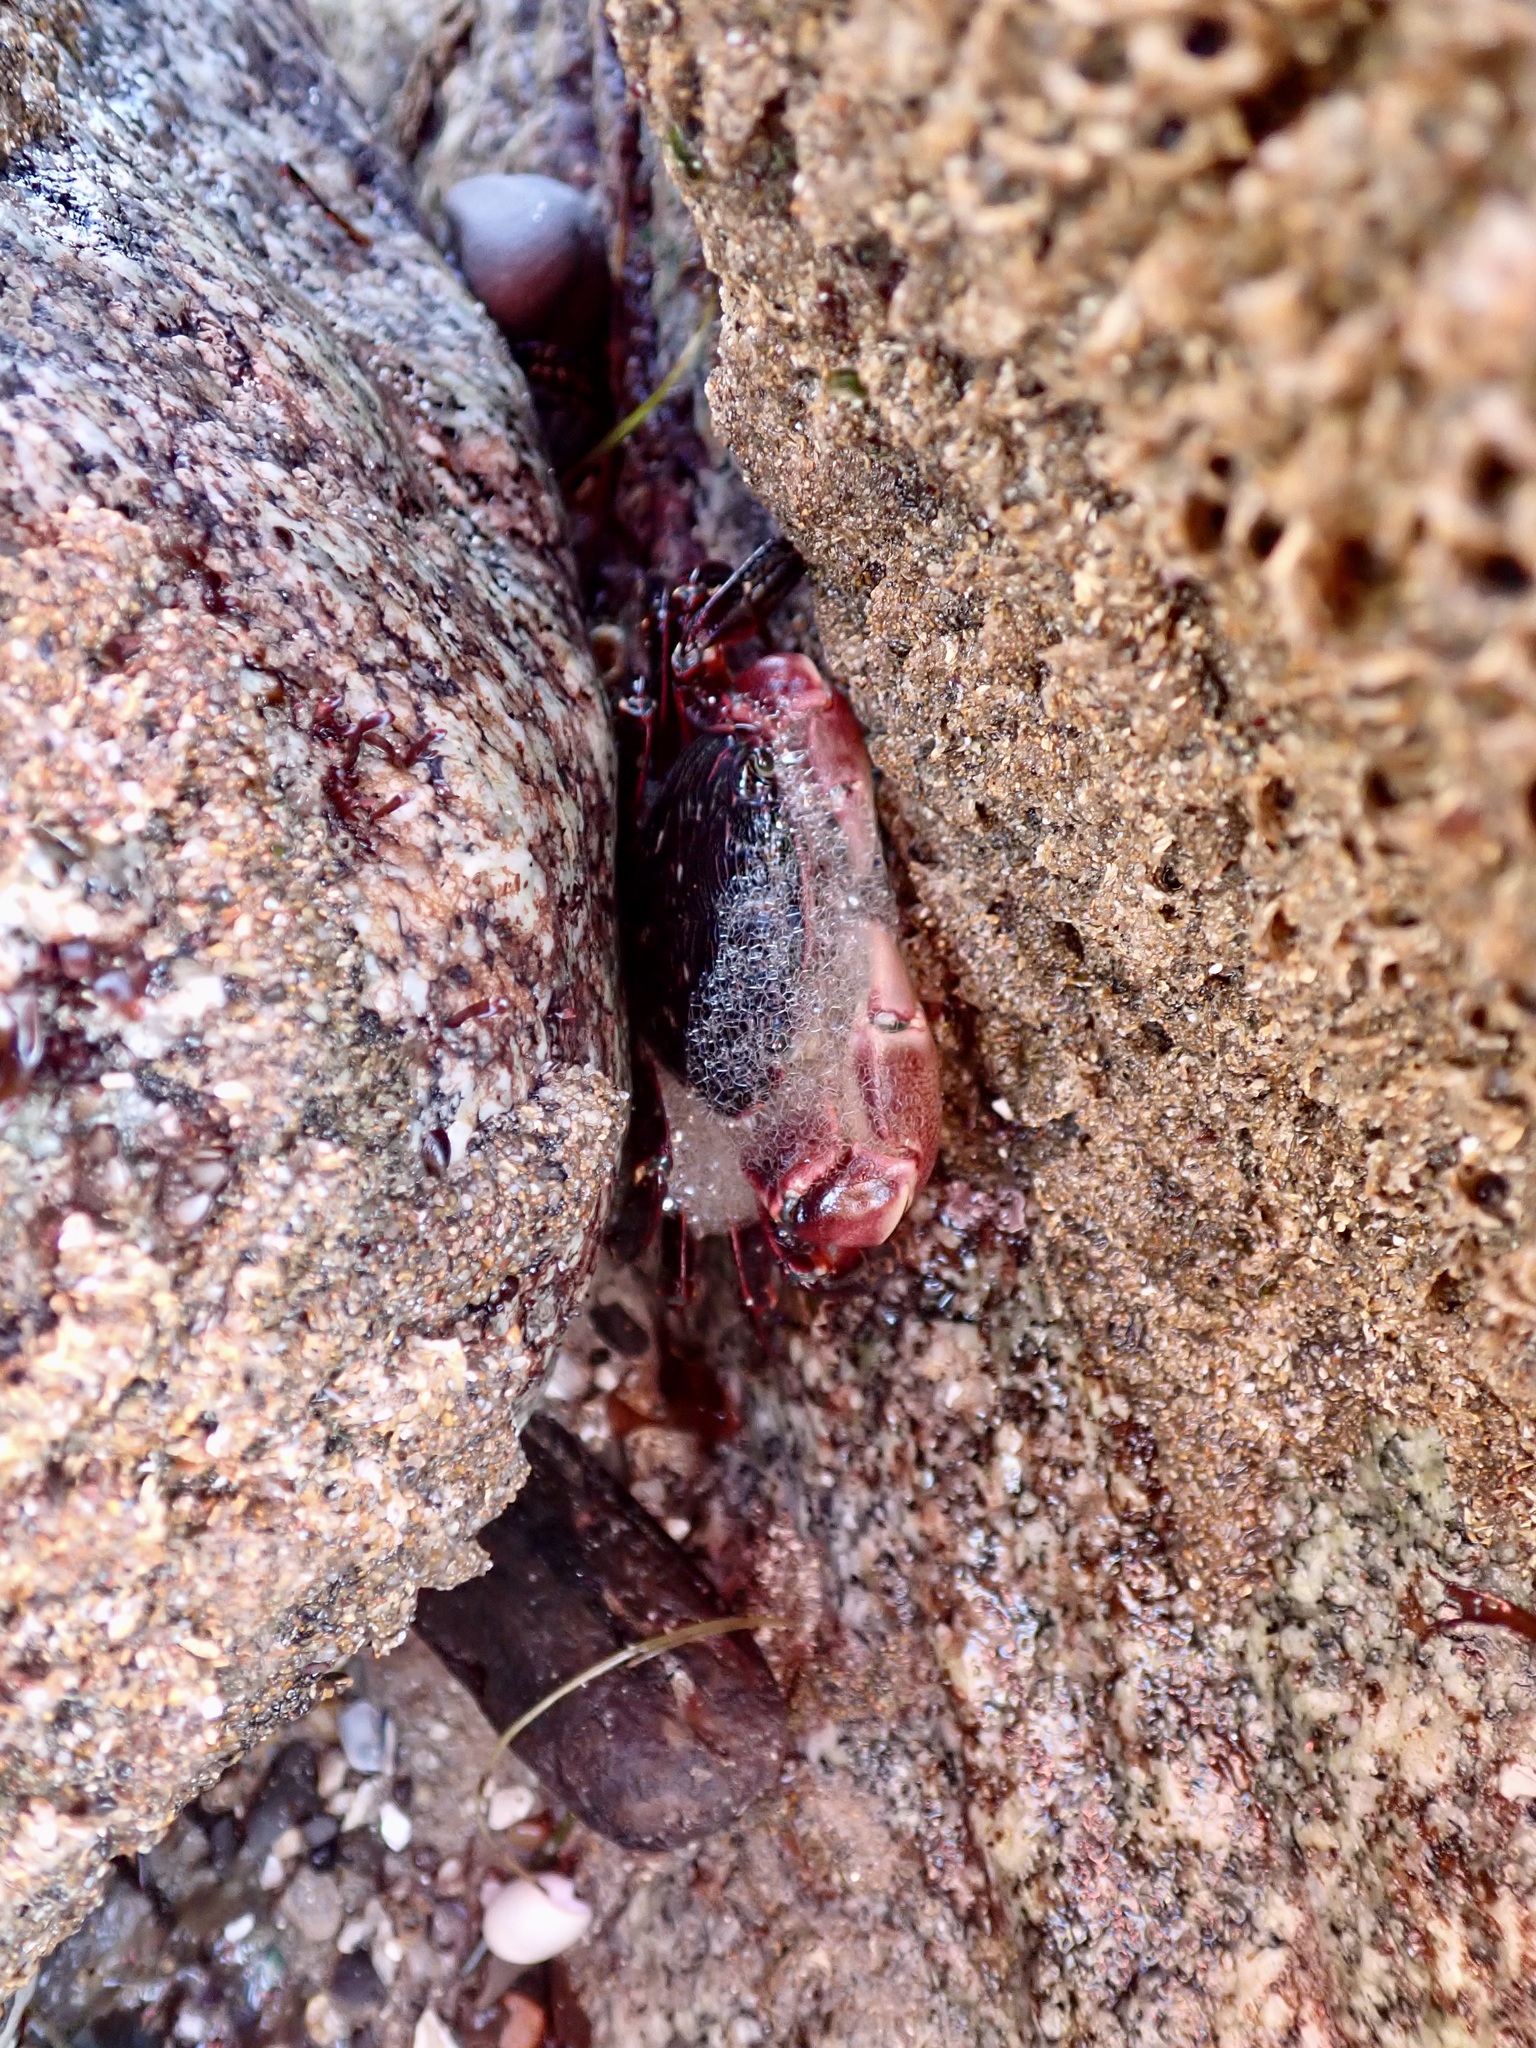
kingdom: Animalia
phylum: Arthropoda
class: Malacostraca
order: Decapoda
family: Grapsidae
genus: Pachygrapsus
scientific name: Pachygrapsus crassipes
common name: Striped shore crab
